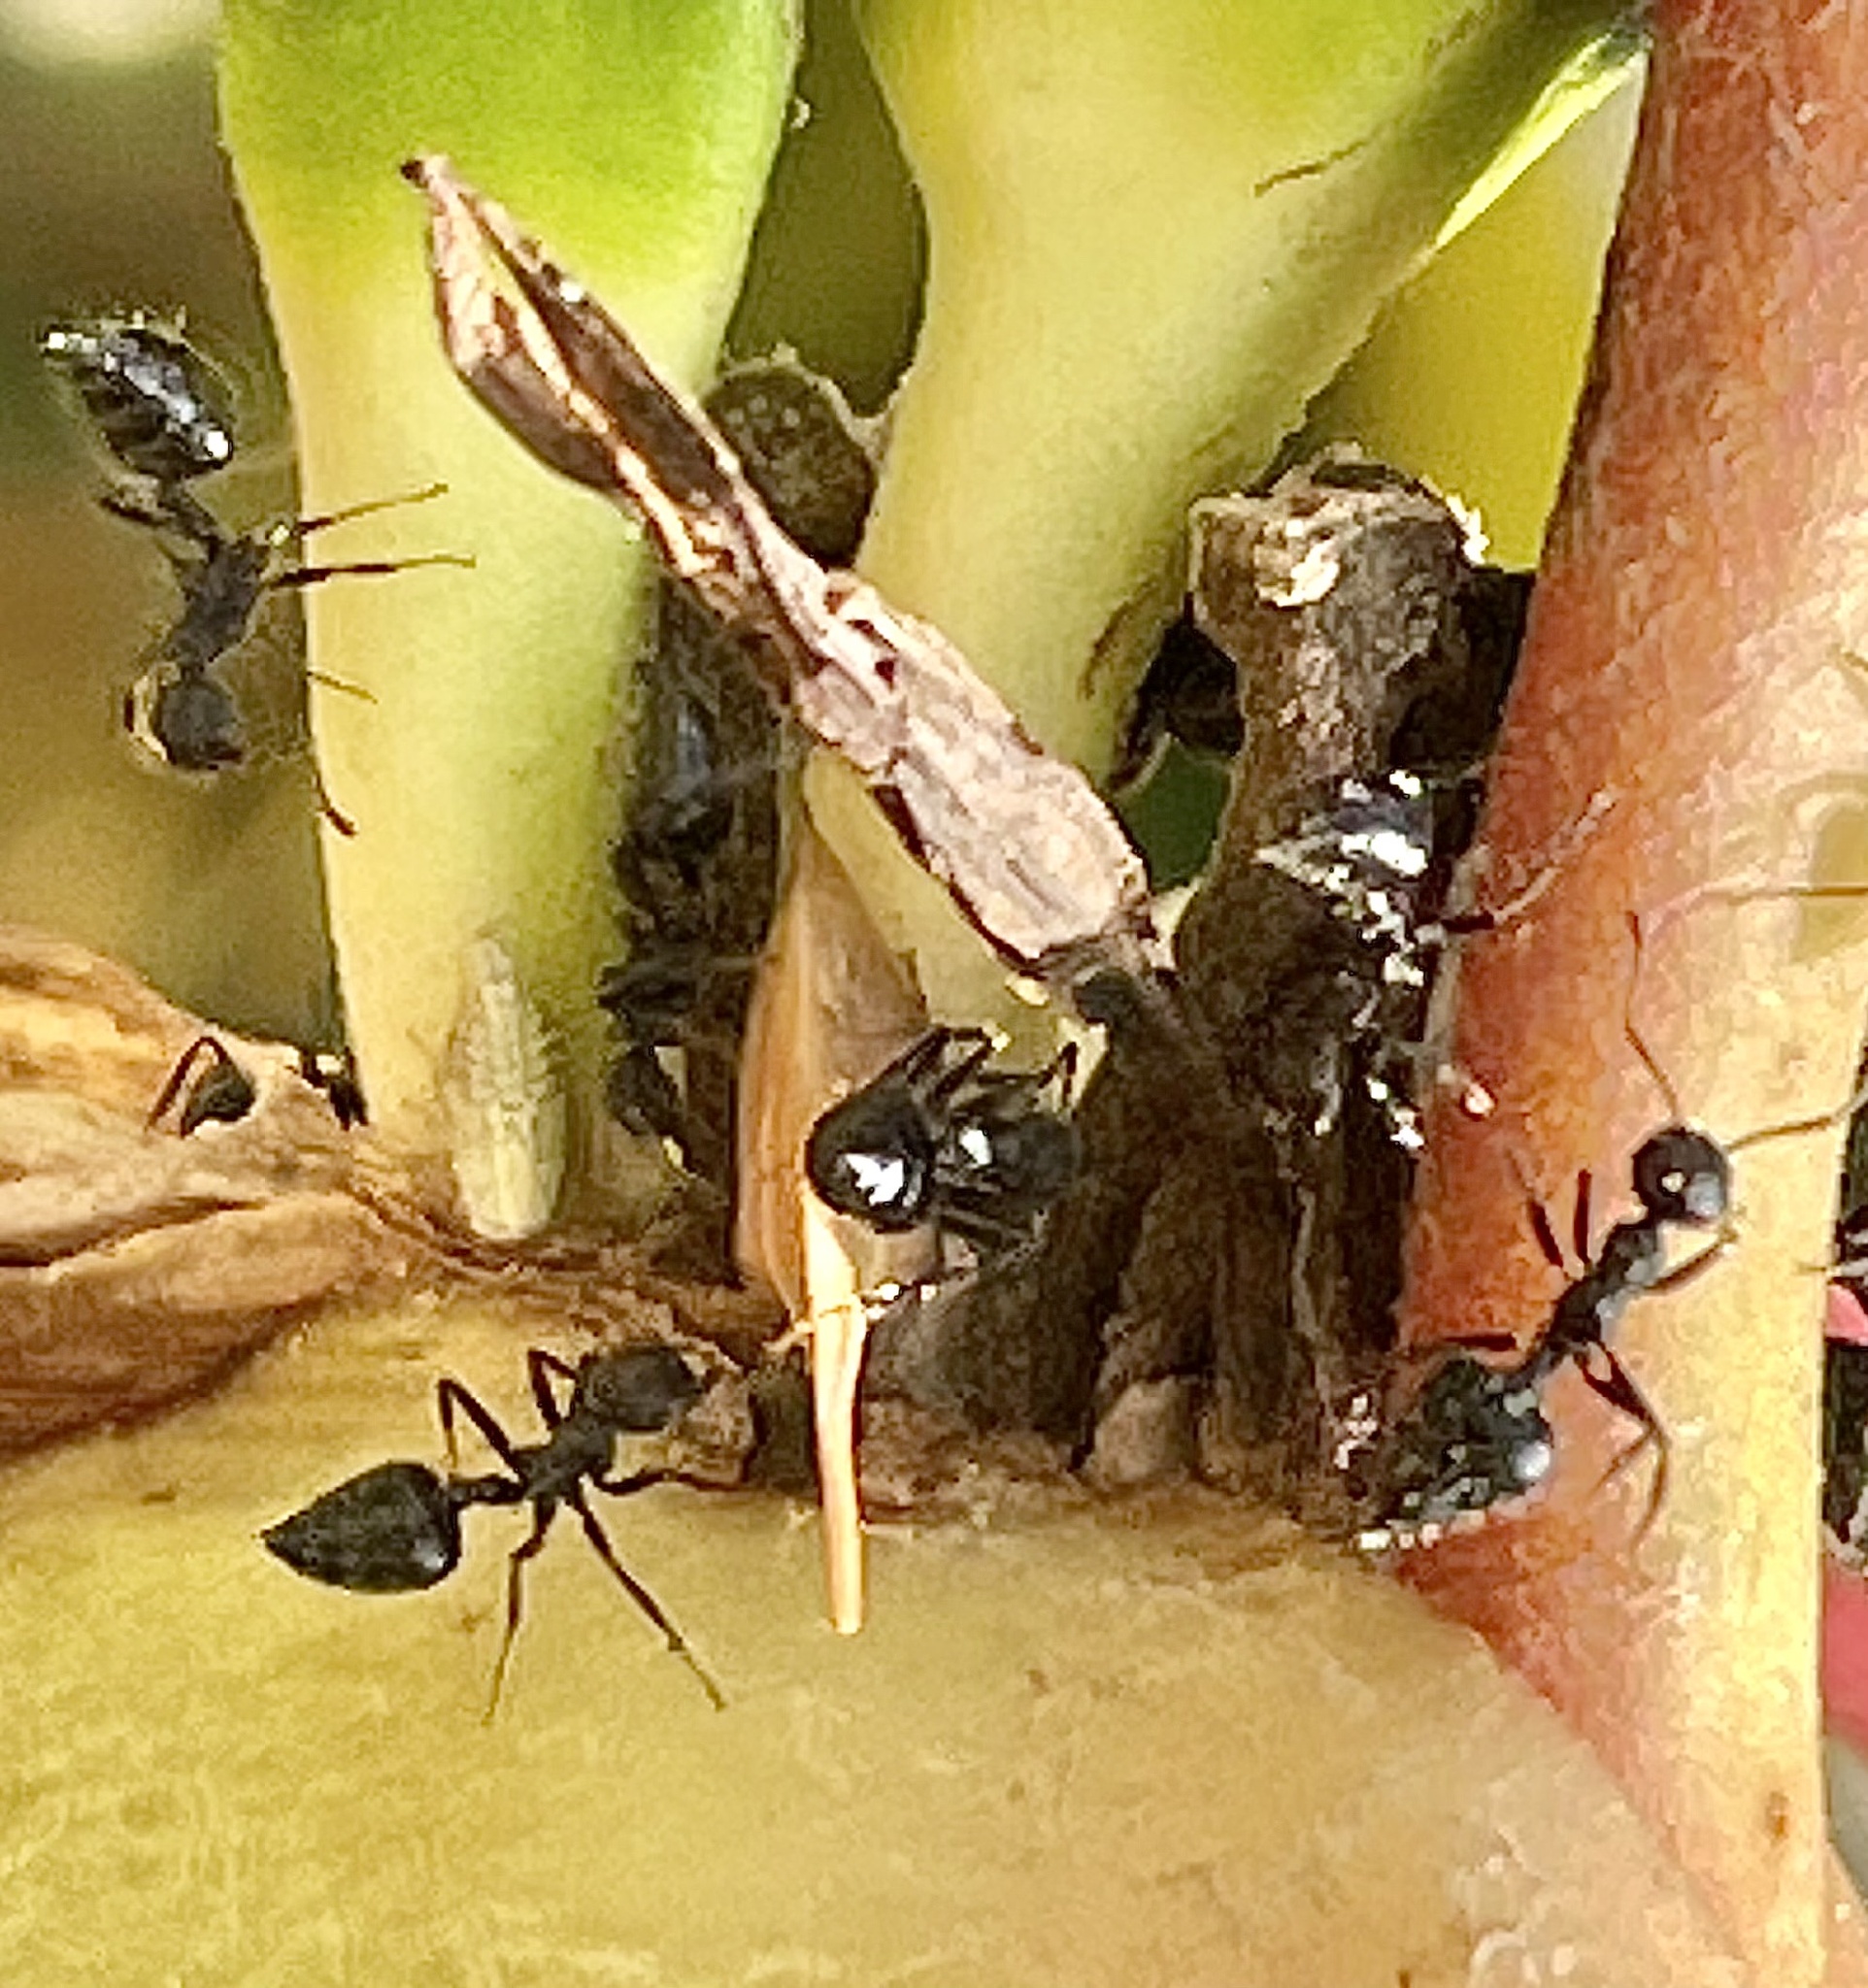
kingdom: Plantae
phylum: Tracheophyta
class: Liliopsida
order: Zingiberales
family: Heliconiaceae
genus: Heliconia
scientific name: Heliconia metallica
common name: Shining bird of paradise
